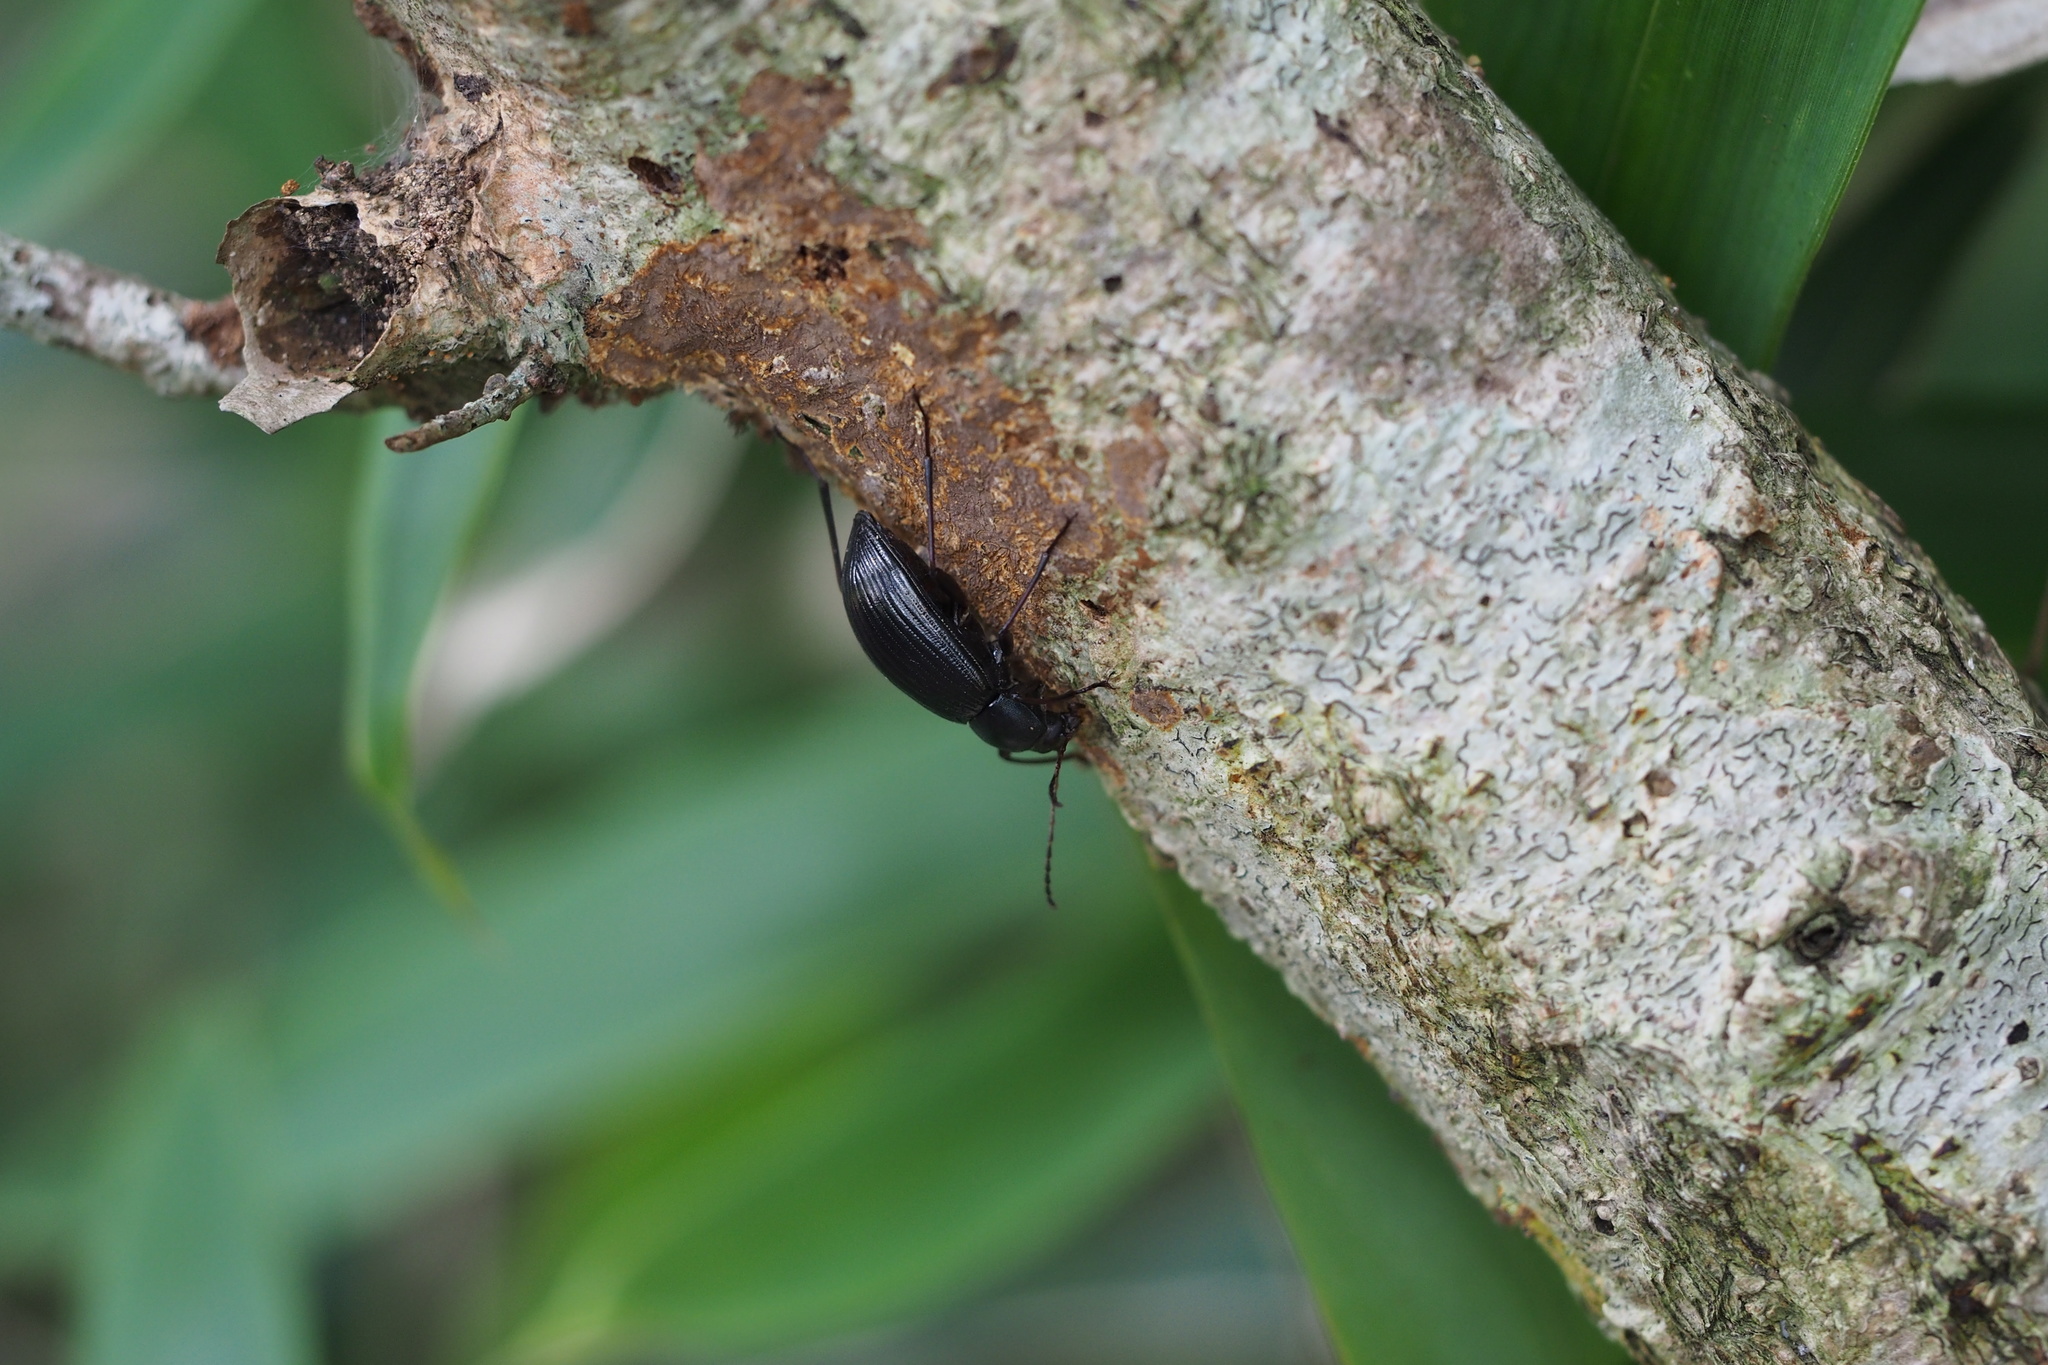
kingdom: Animalia
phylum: Arthropoda
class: Insecta
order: Coleoptera
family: Tenebrionidae
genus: Plesiophthalmus
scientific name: Plesiophthalmus
